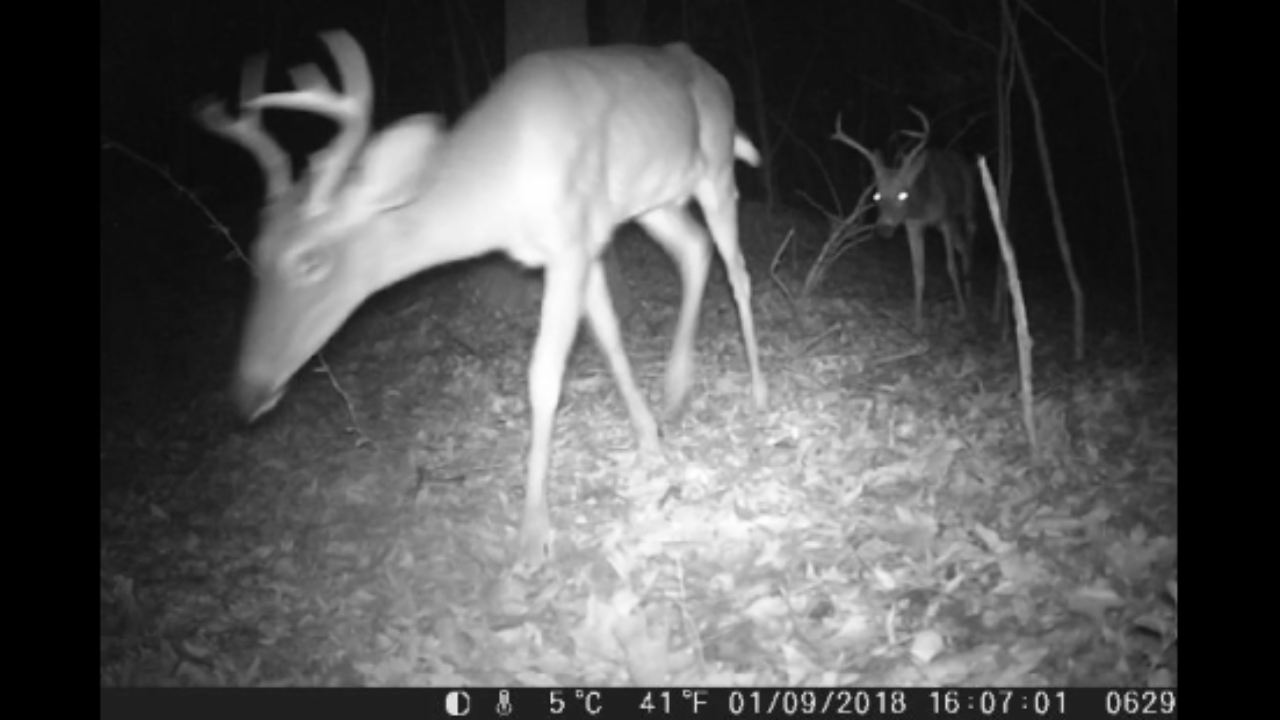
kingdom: Animalia
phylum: Chordata
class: Mammalia
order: Artiodactyla
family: Cervidae
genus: Odocoileus
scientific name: Odocoileus virginianus
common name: White-tailed deer
